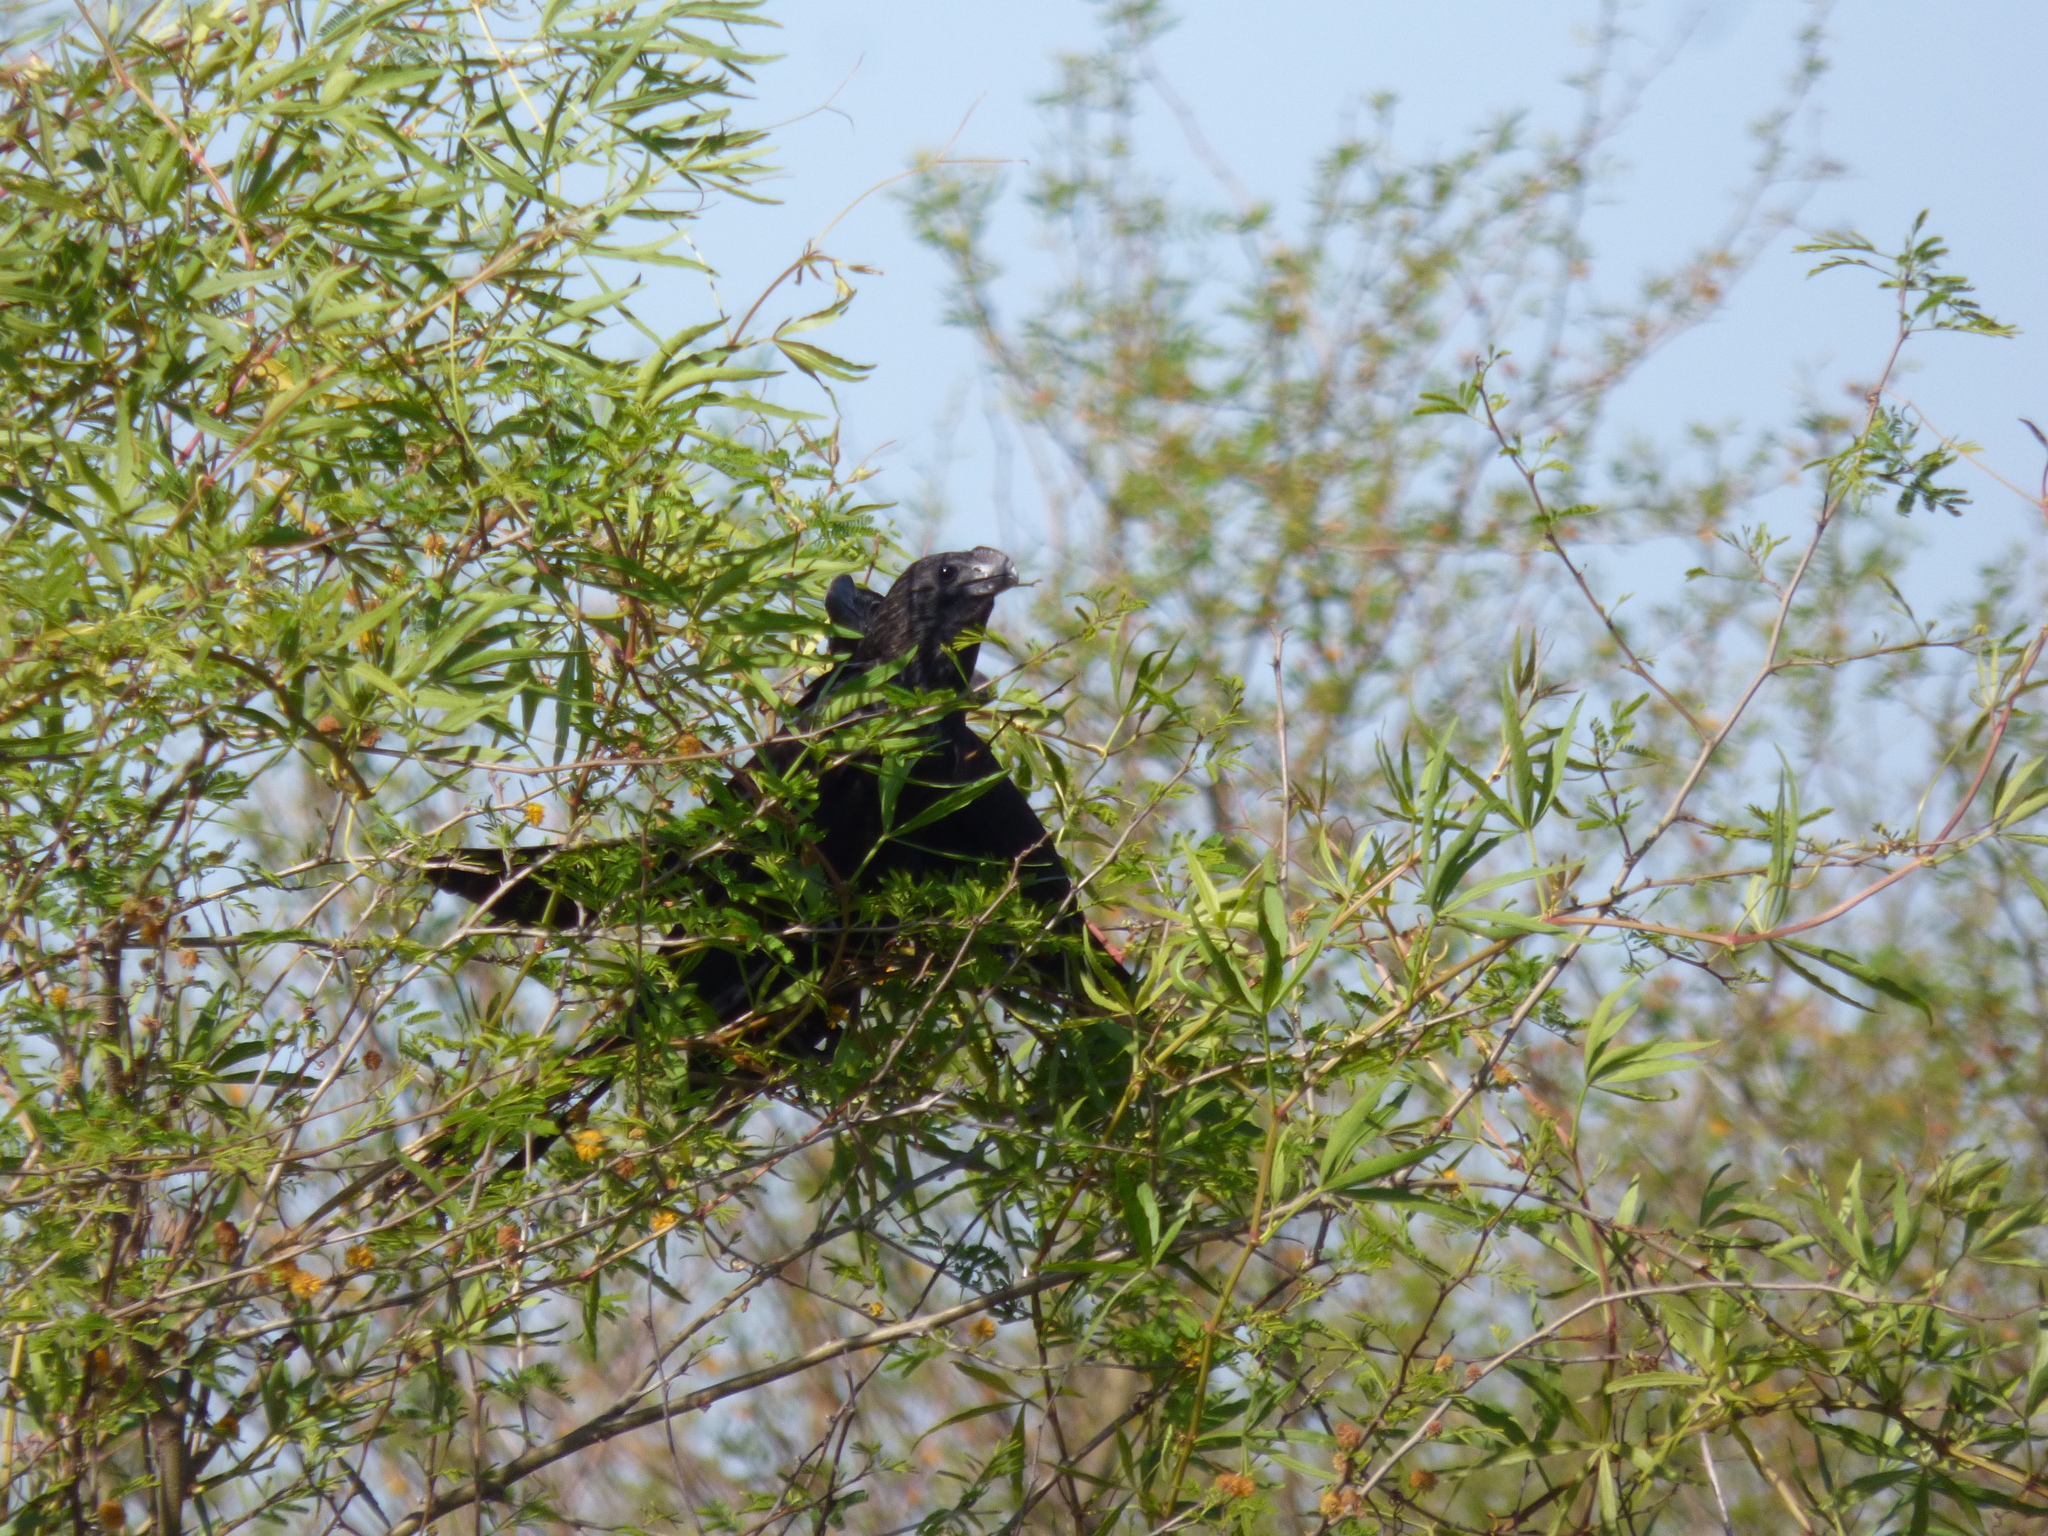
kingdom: Animalia
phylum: Chordata
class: Aves
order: Cuculiformes
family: Cuculidae
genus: Crotophaga
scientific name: Crotophaga ani
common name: Smooth-billed ani
